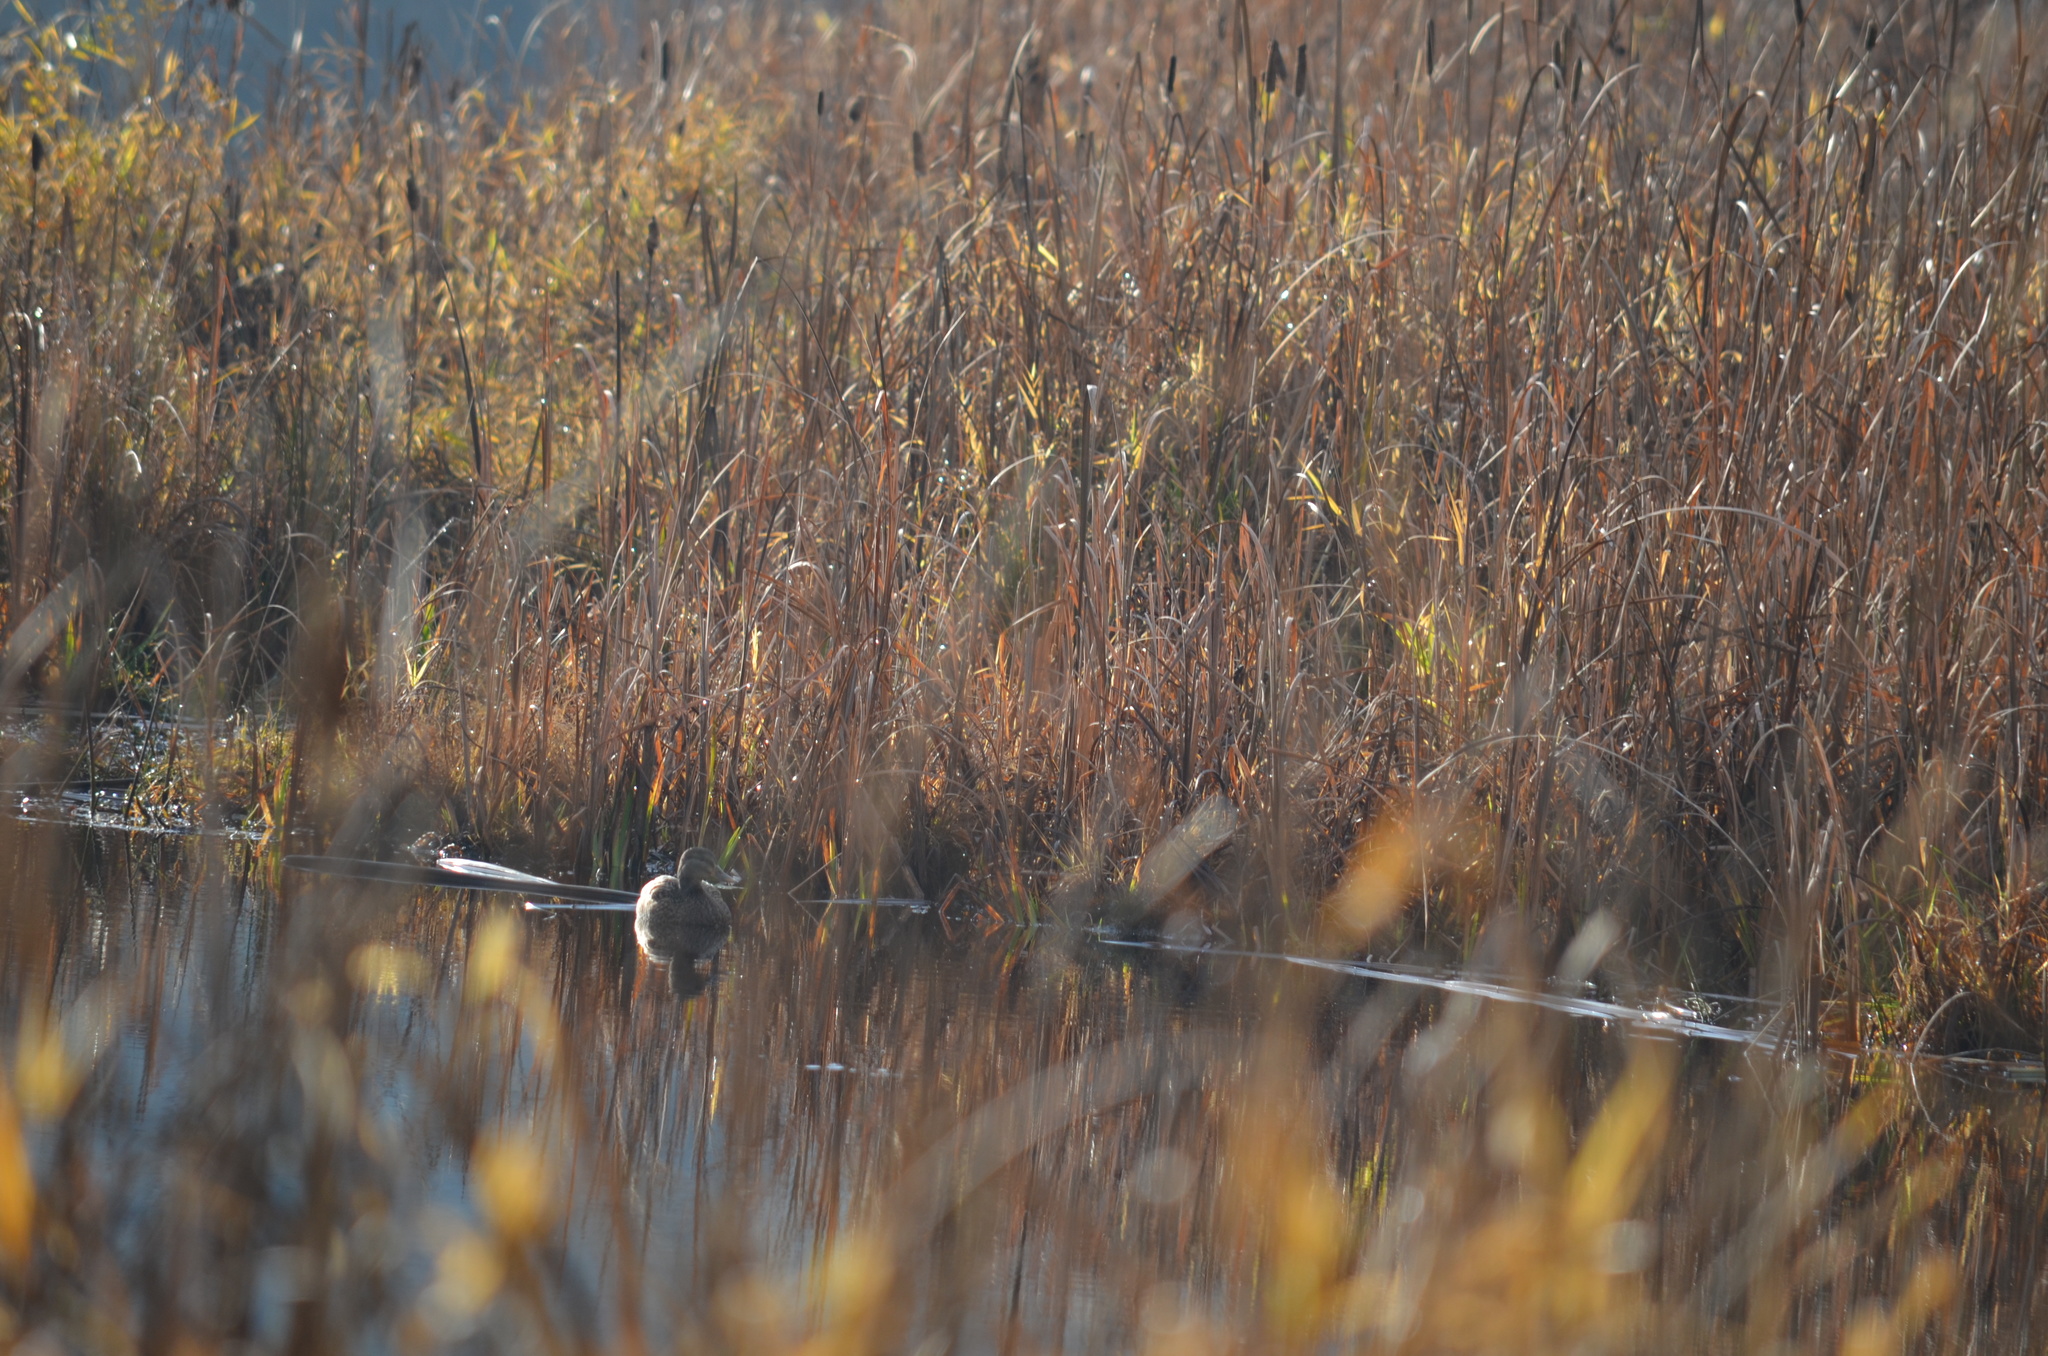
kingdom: Animalia
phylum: Chordata
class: Aves
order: Anseriformes
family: Anatidae
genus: Anas
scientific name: Anas platyrhynchos
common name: Mallard
